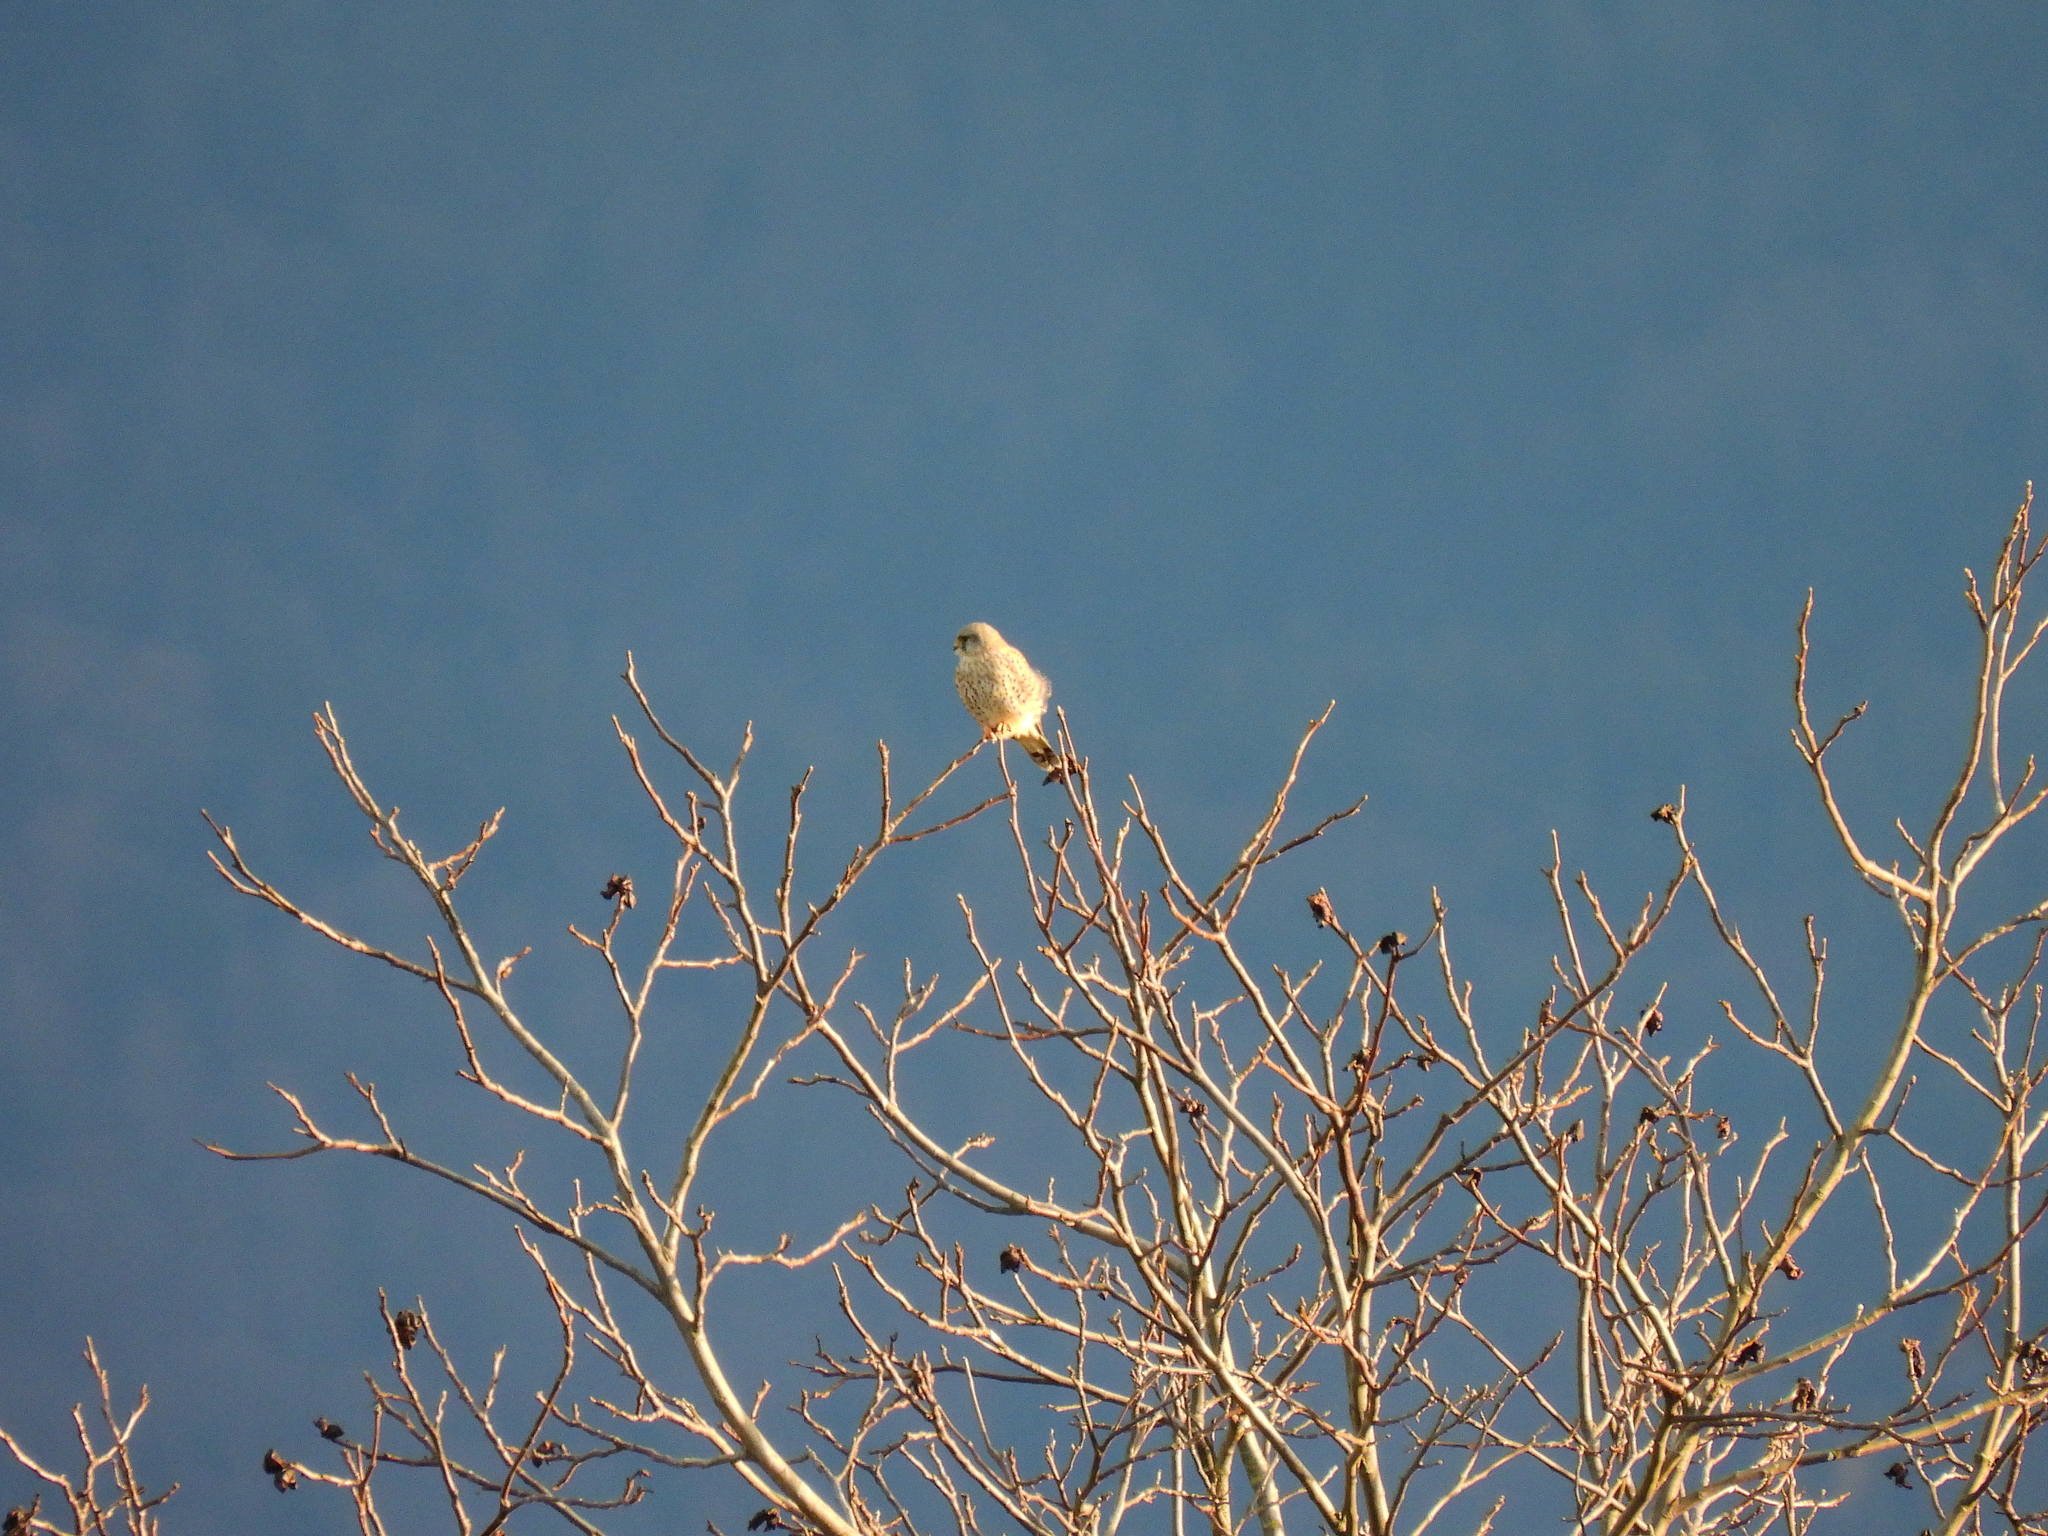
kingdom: Animalia
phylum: Chordata
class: Aves
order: Falconiformes
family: Falconidae
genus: Falco
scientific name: Falco tinnunculus
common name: Common kestrel
